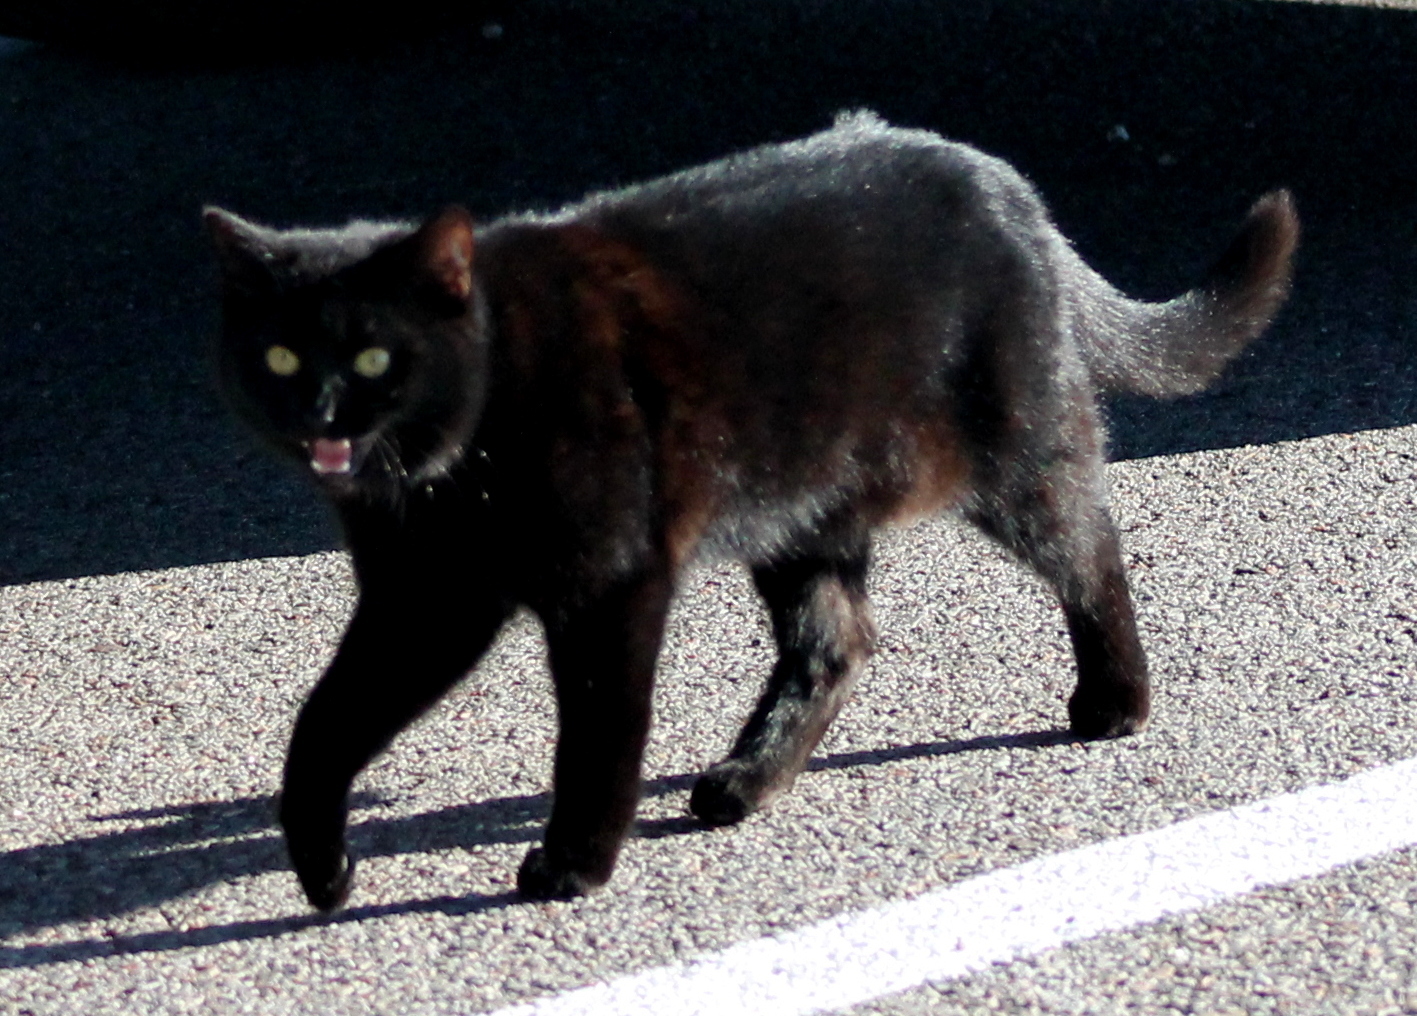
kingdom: Animalia
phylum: Chordata
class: Mammalia
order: Carnivora
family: Felidae
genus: Felis
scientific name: Felis catus
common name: Domestic cat
